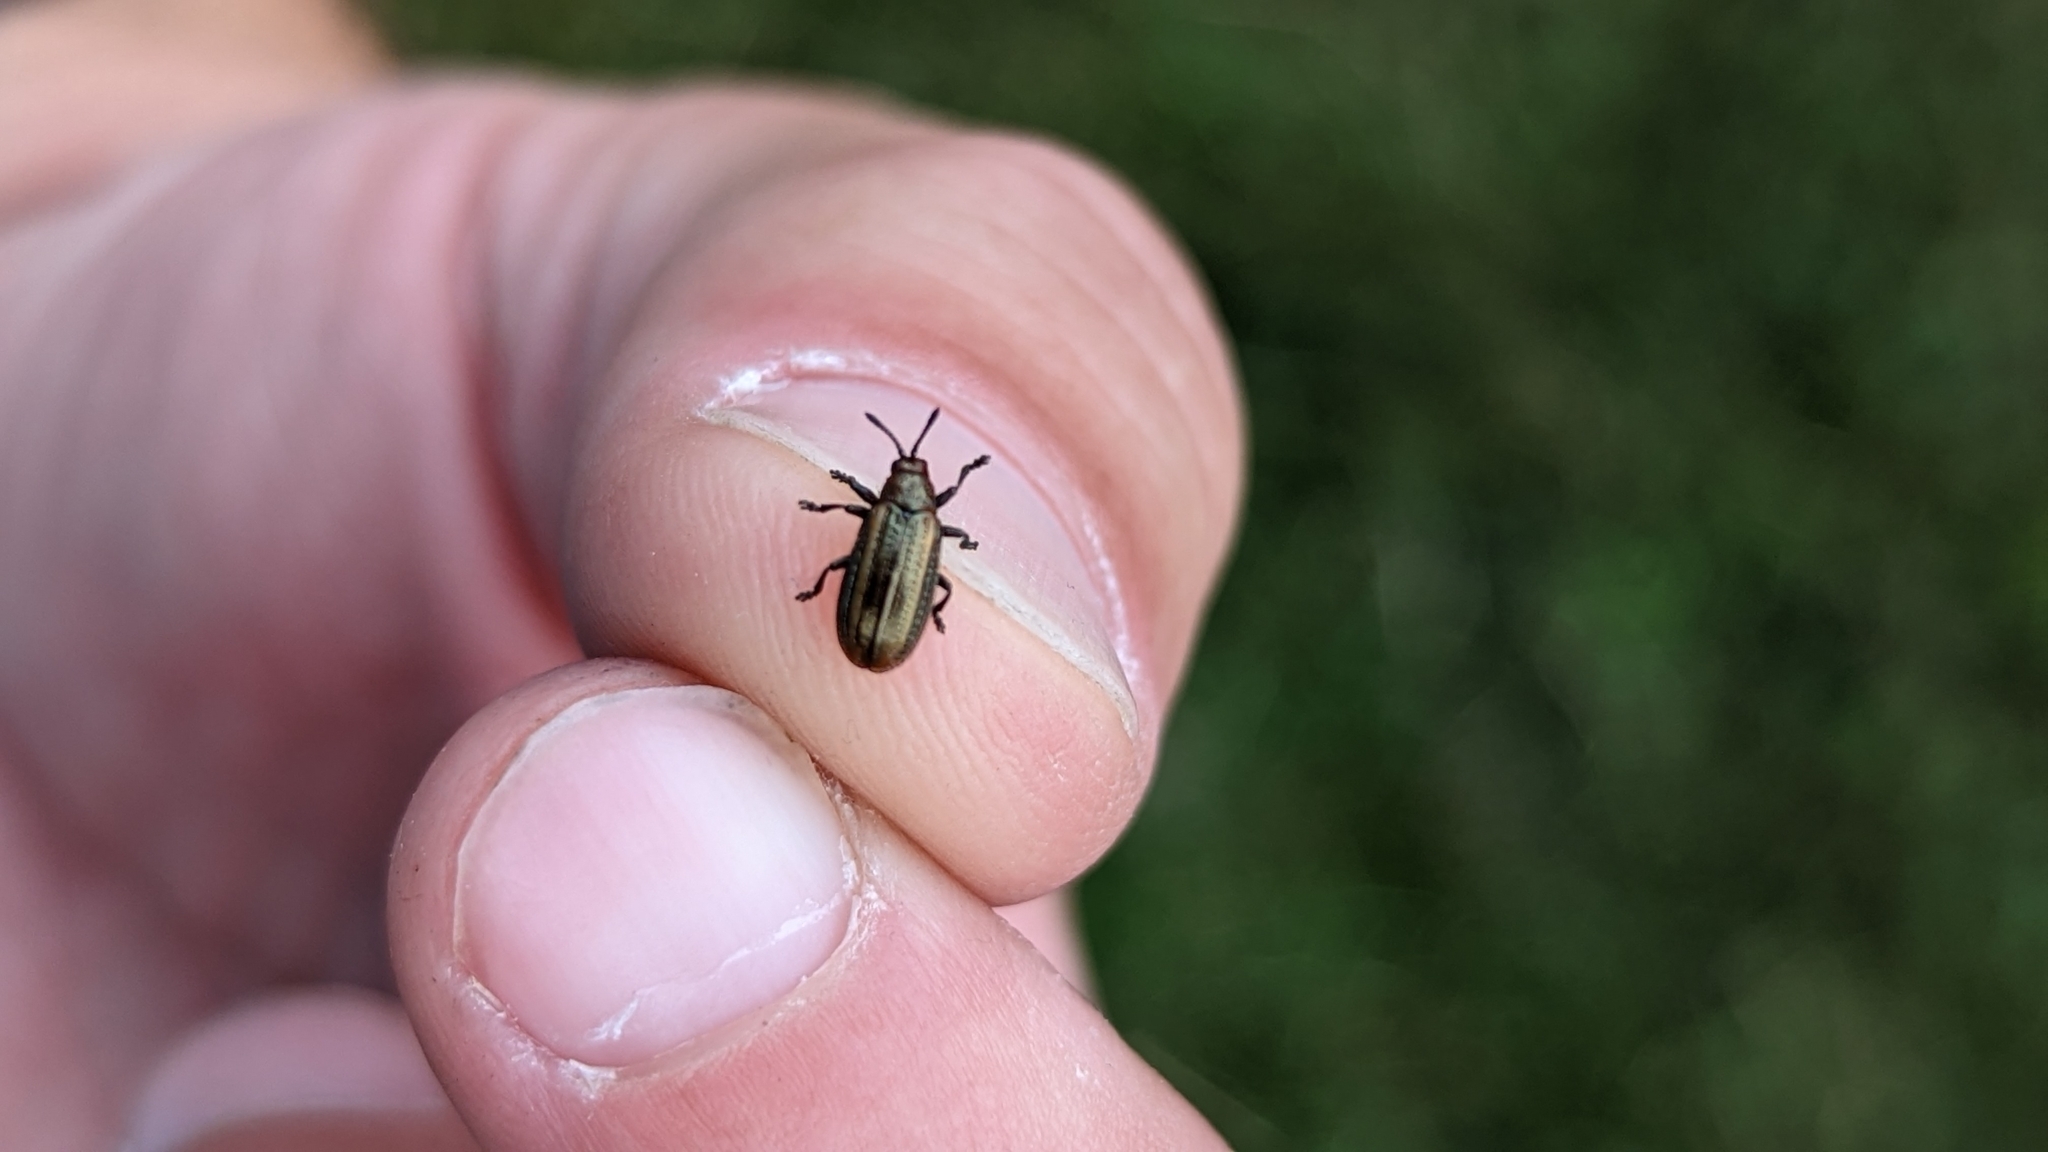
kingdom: Animalia
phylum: Arthropoda
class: Insecta
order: Coleoptera
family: Chrysomelidae
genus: Microrhopala
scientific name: Microrhopala vittata
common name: Goldenrod leaf miner beetle
